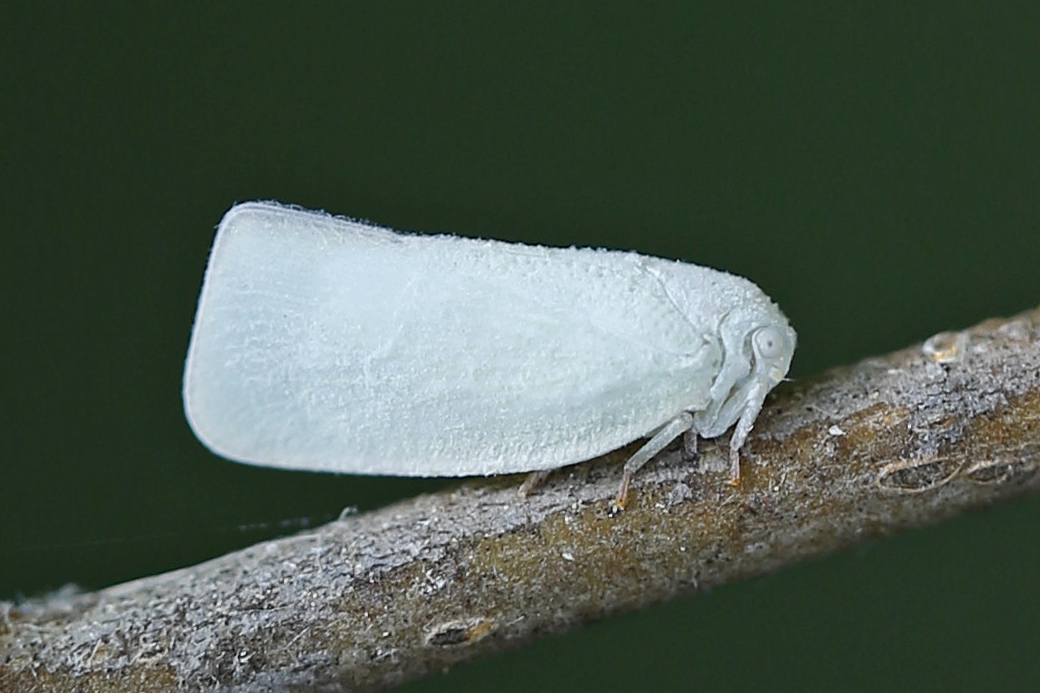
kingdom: Animalia
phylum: Arthropoda
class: Insecta
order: Hemiptera
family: Flatidae
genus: Flatormenis
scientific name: Flatormenis proxima
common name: Northern flatid planthopper
